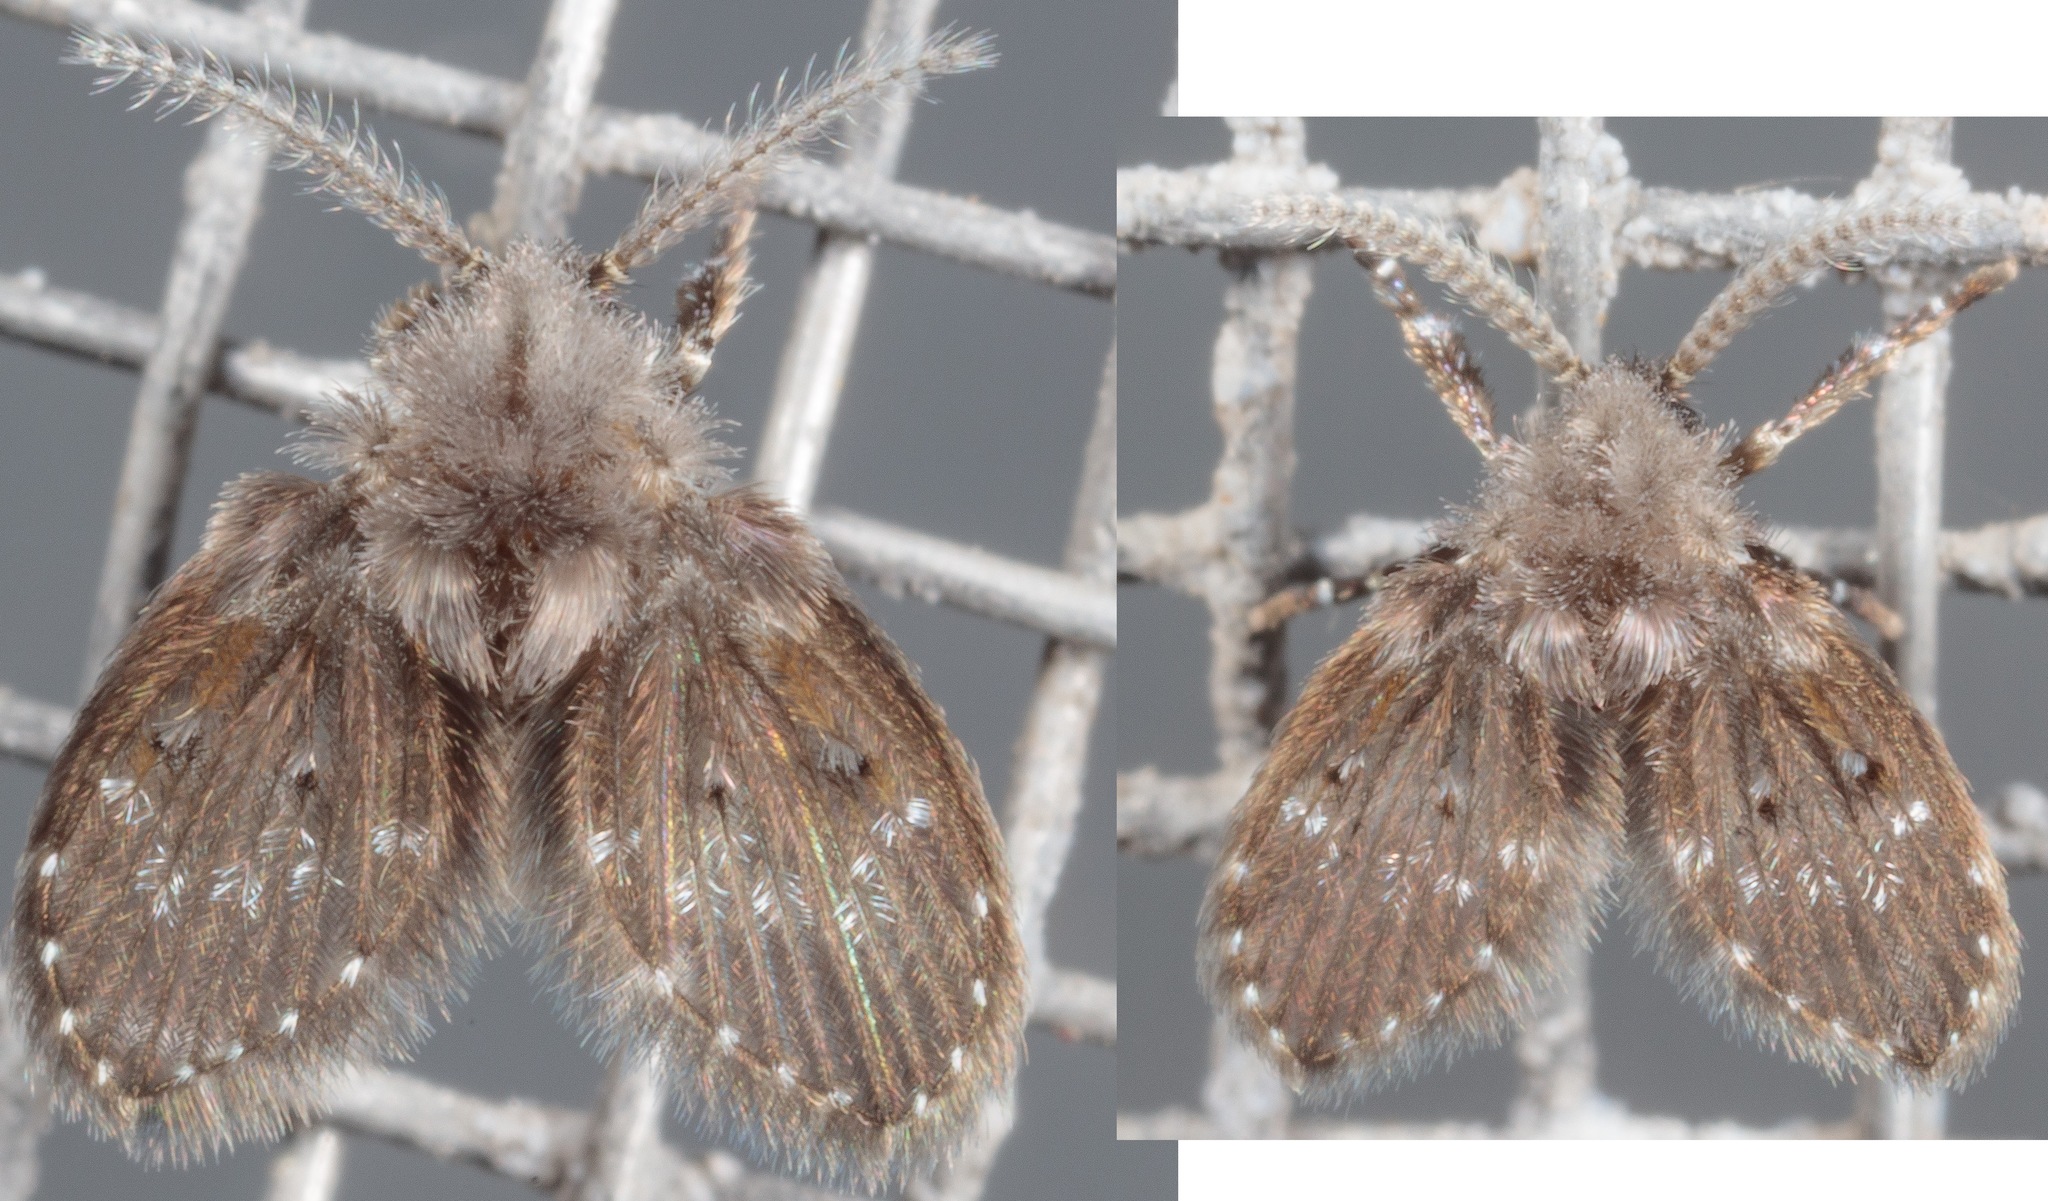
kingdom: Animalia
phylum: Arthropoda
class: Insecta
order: Diptera
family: Psychodidae
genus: Clogmia
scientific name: Clogmia albipunctatus
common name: White-spotted moth fly
